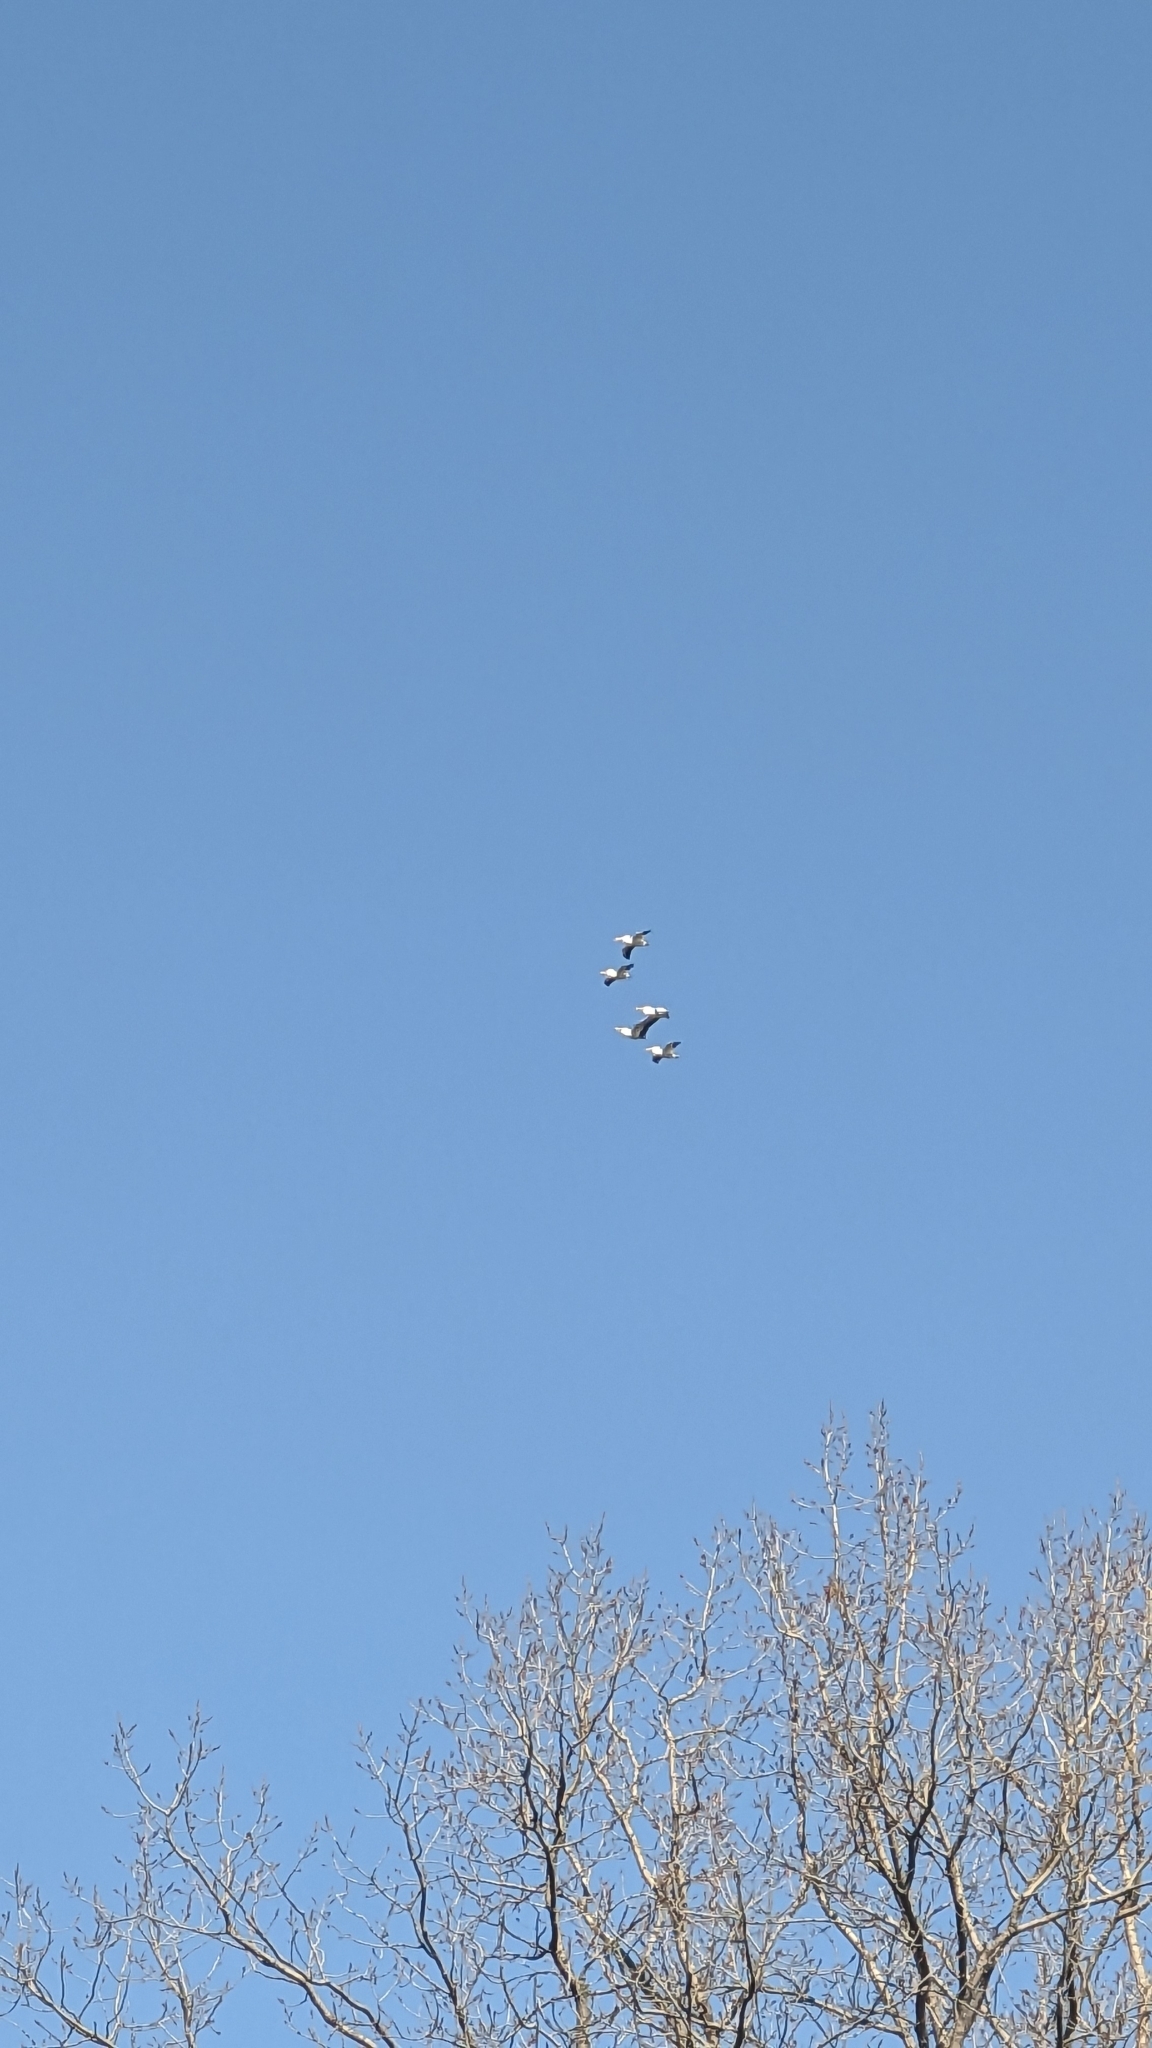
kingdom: Animalia
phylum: Chordata
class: Aves
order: Pelecaniformes
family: Pelecanidae
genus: Pelecanus
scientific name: Pelecanus erythrorhynchos
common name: American white pelican
